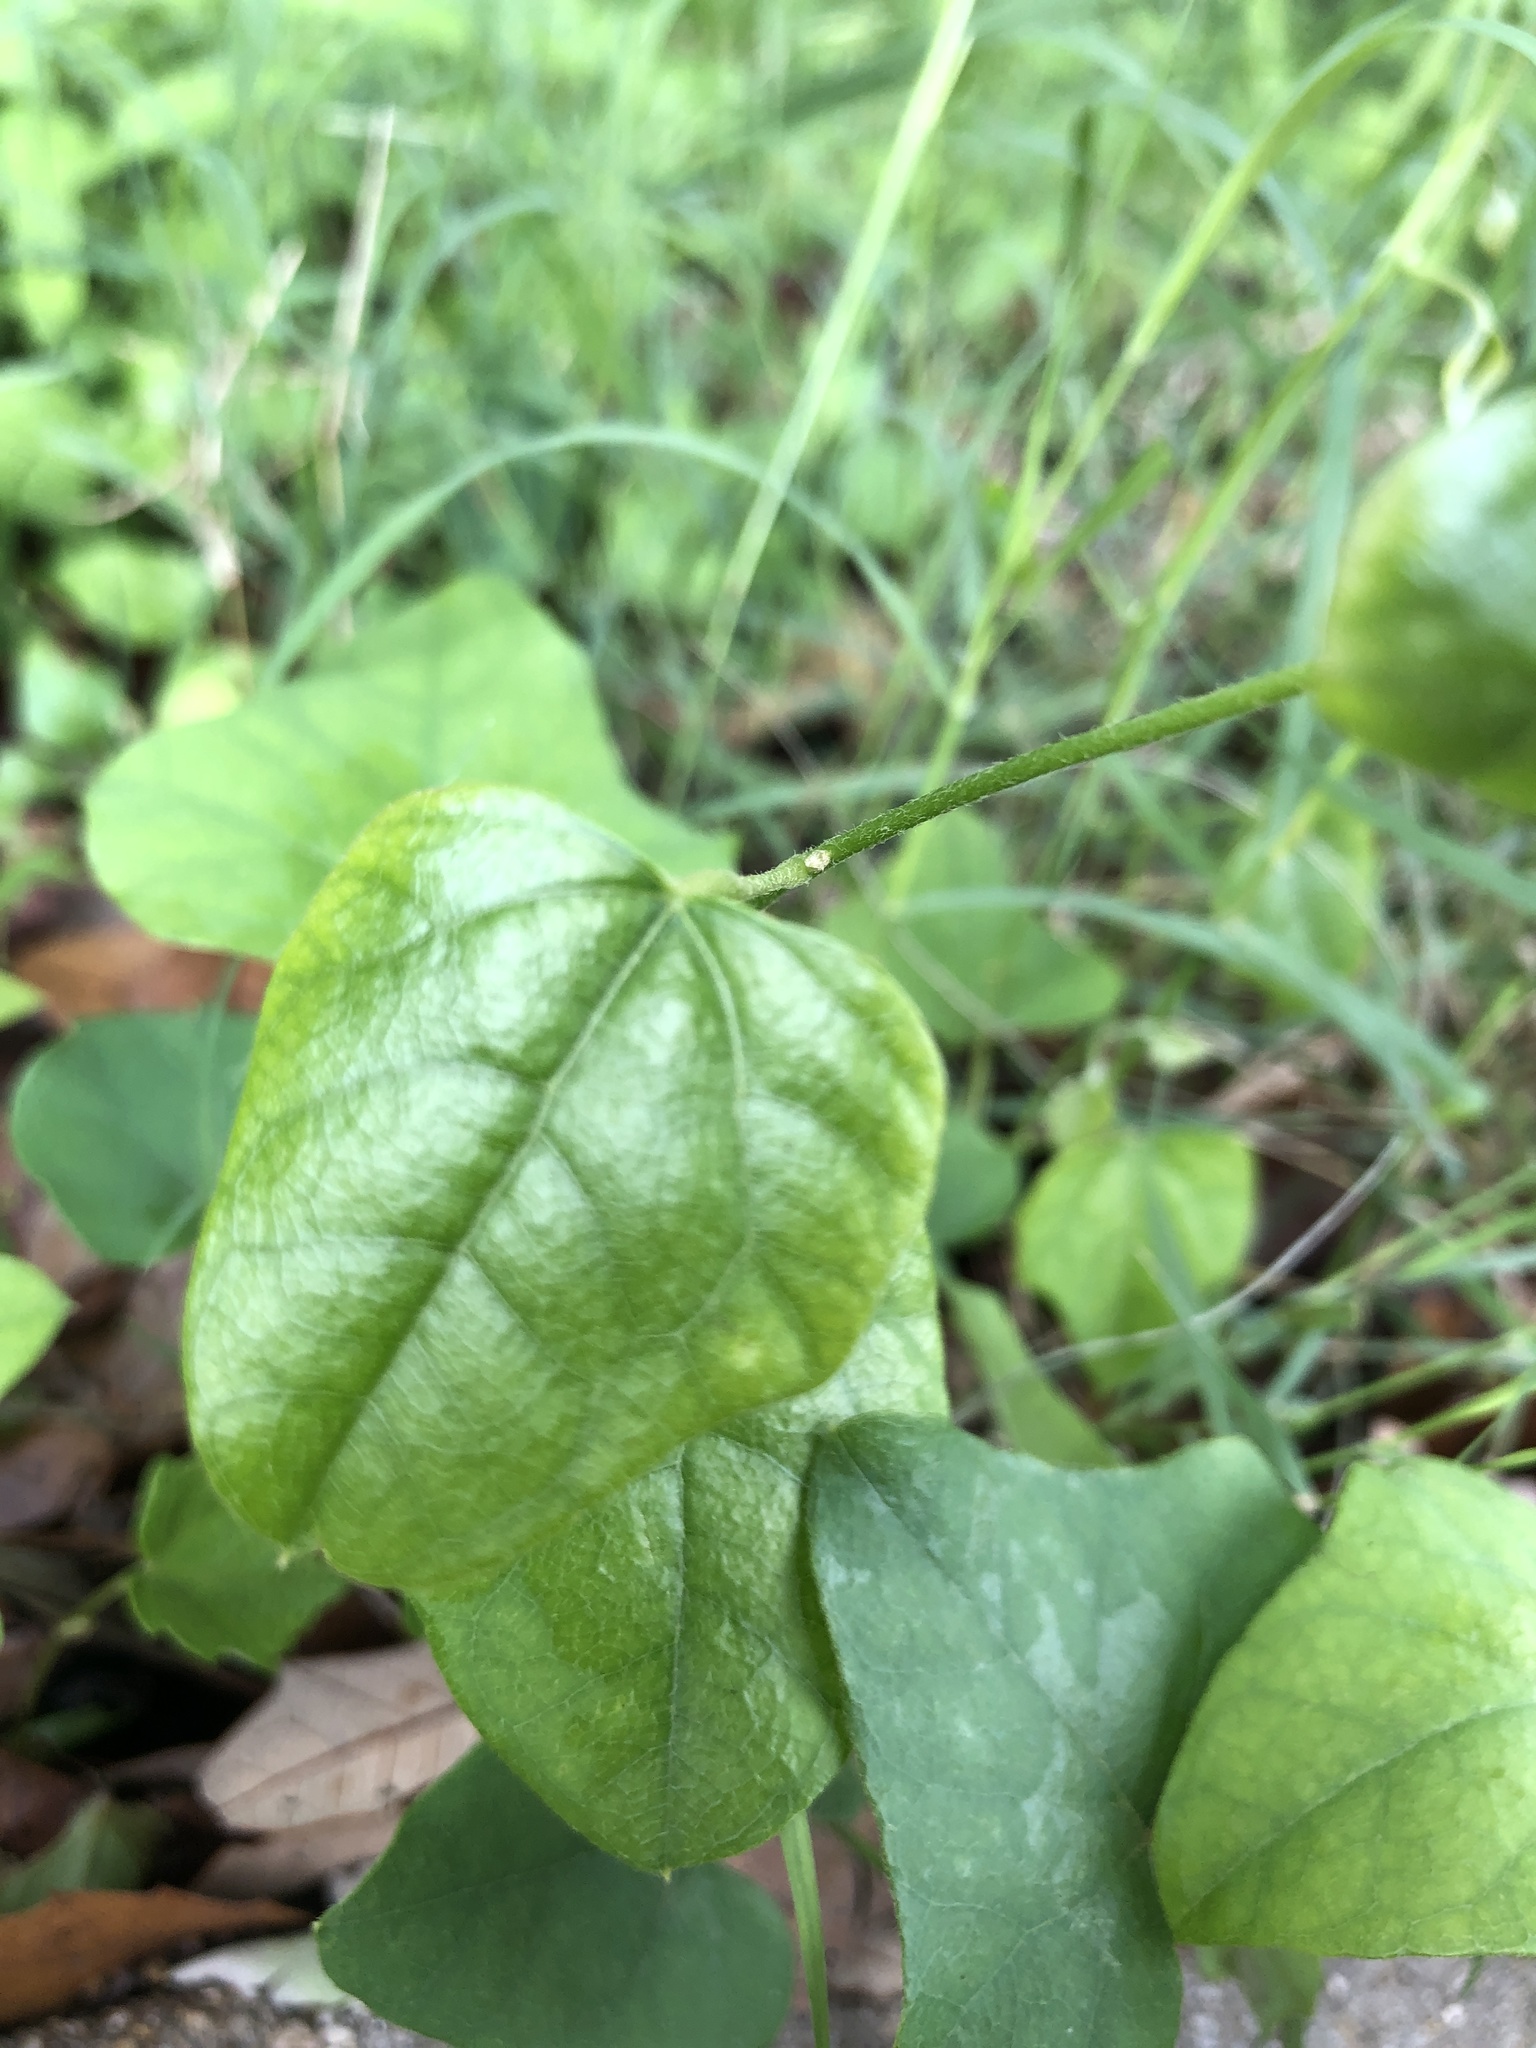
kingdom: Plantae
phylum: Tracheophyta
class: Magnoliopsida
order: Ranunculales
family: Menispermaceae
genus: Cocculus
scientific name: Cocculus carolinus
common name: Carolina moonseed
